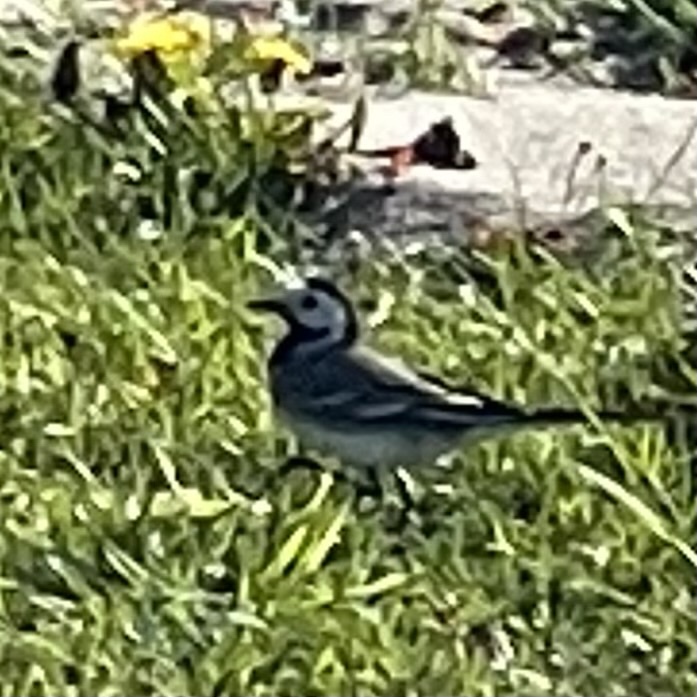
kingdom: Animalia
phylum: Chordata
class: Aves
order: Passeriformes
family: Motacillidae
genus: Motacilla
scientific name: Motacilla alba
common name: White wagtail
